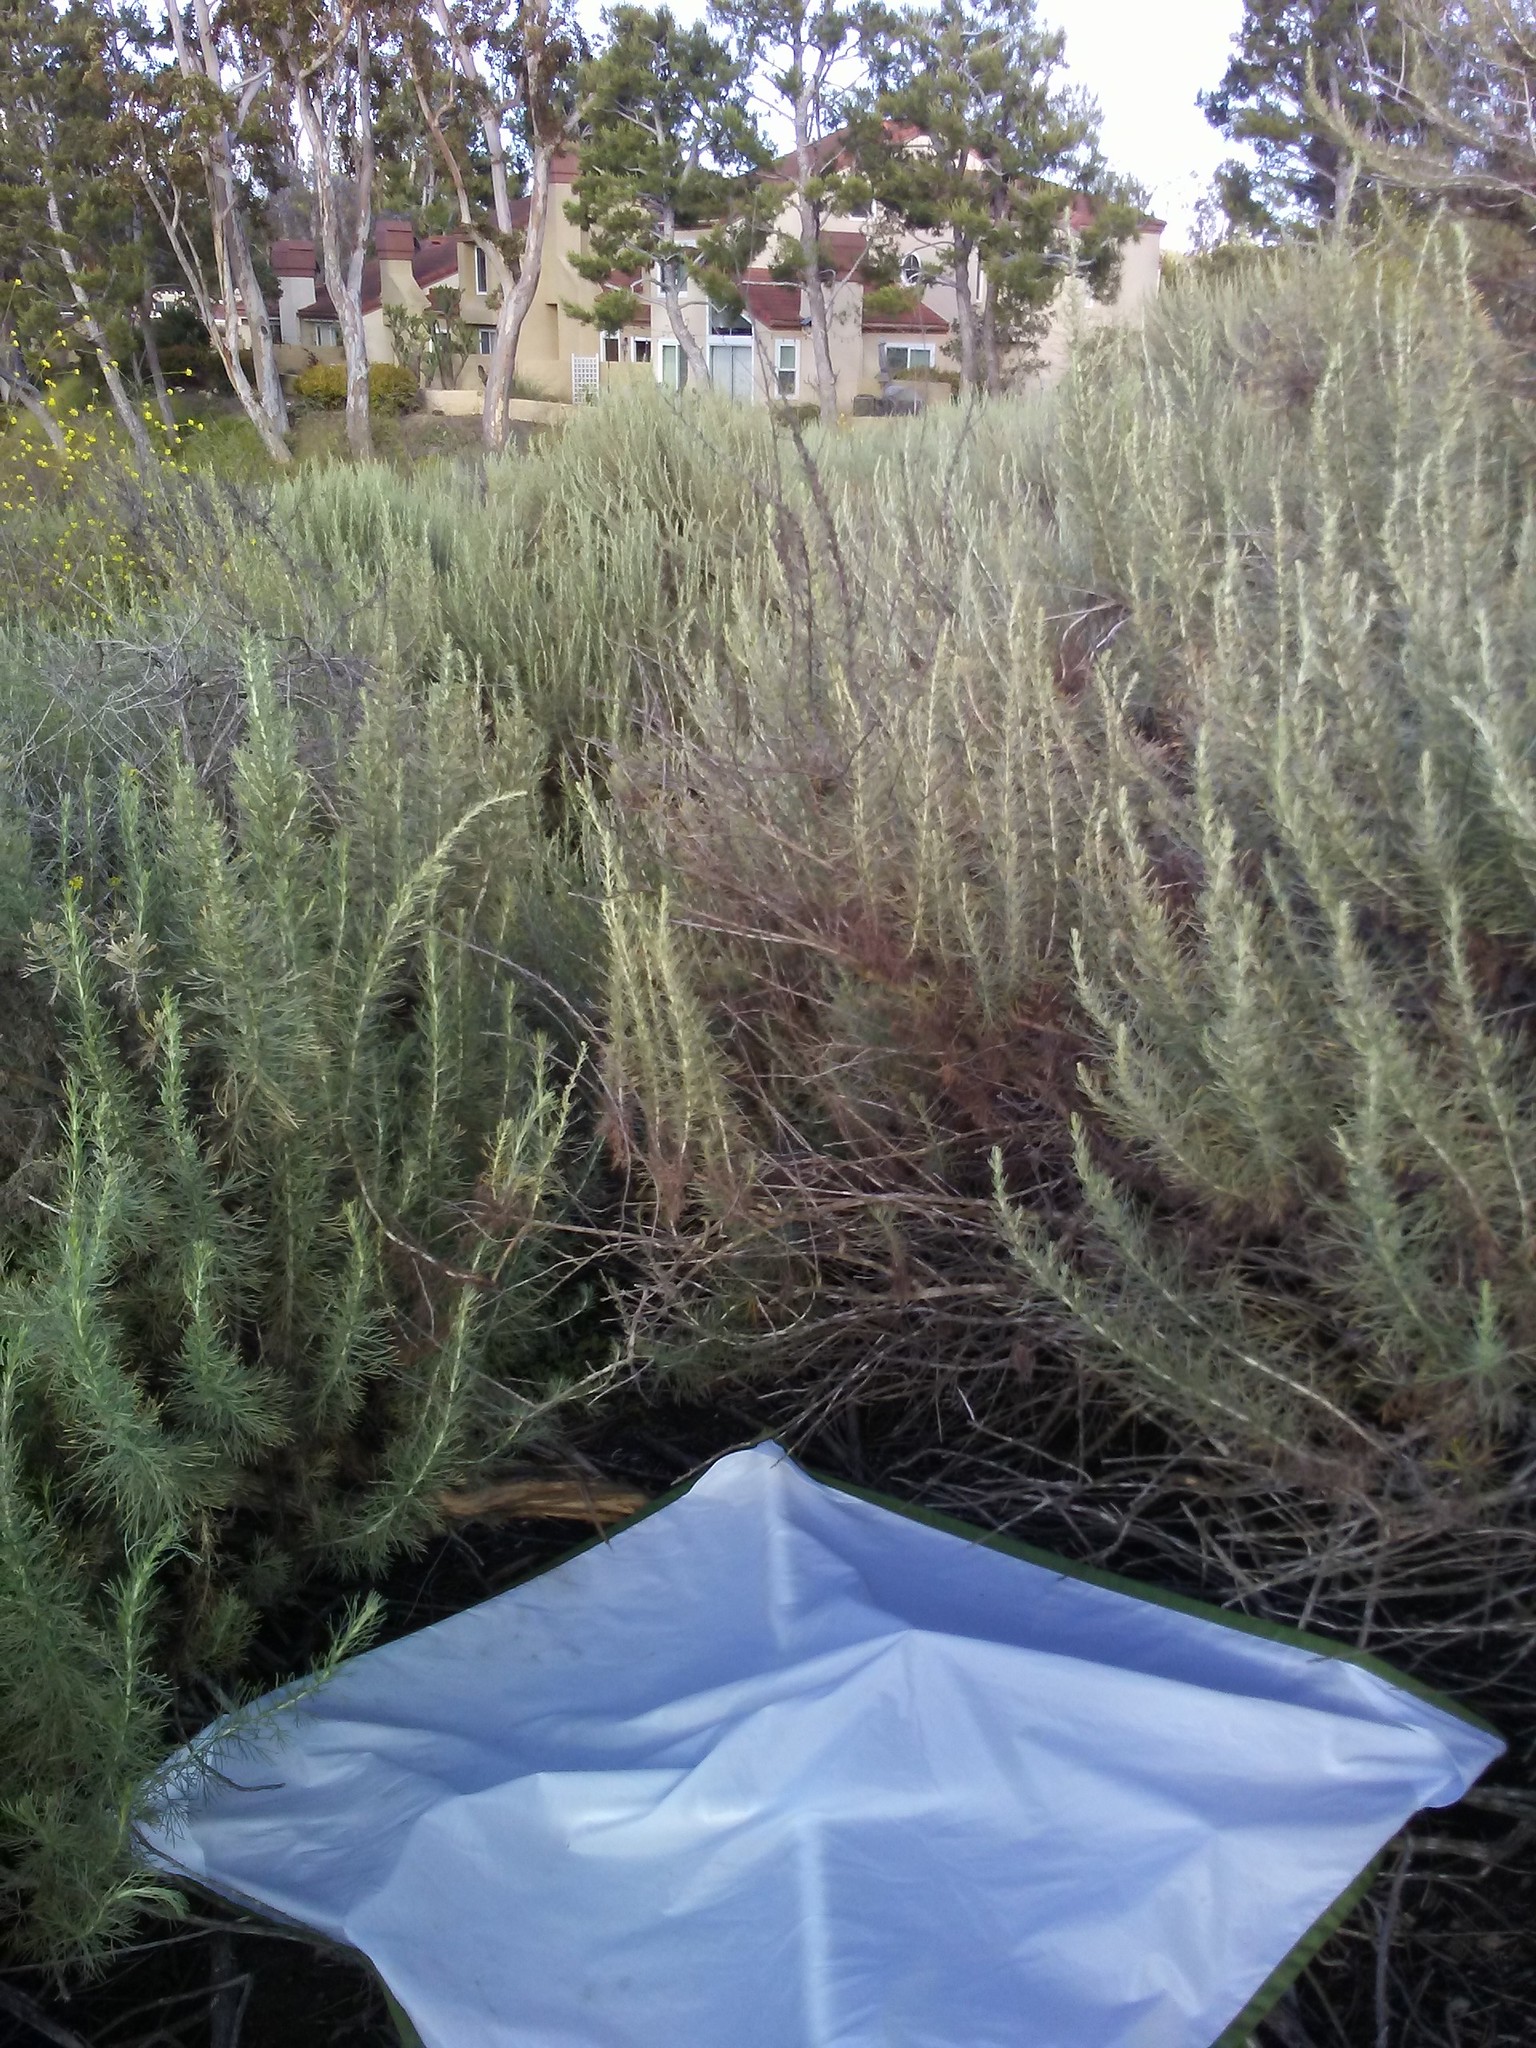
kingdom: Plantae
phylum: Tracheophyta
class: Magnoliopsida
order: Asterales
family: Asteraceae
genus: Artemisia
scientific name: Artemisia californica
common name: California sagebrush
